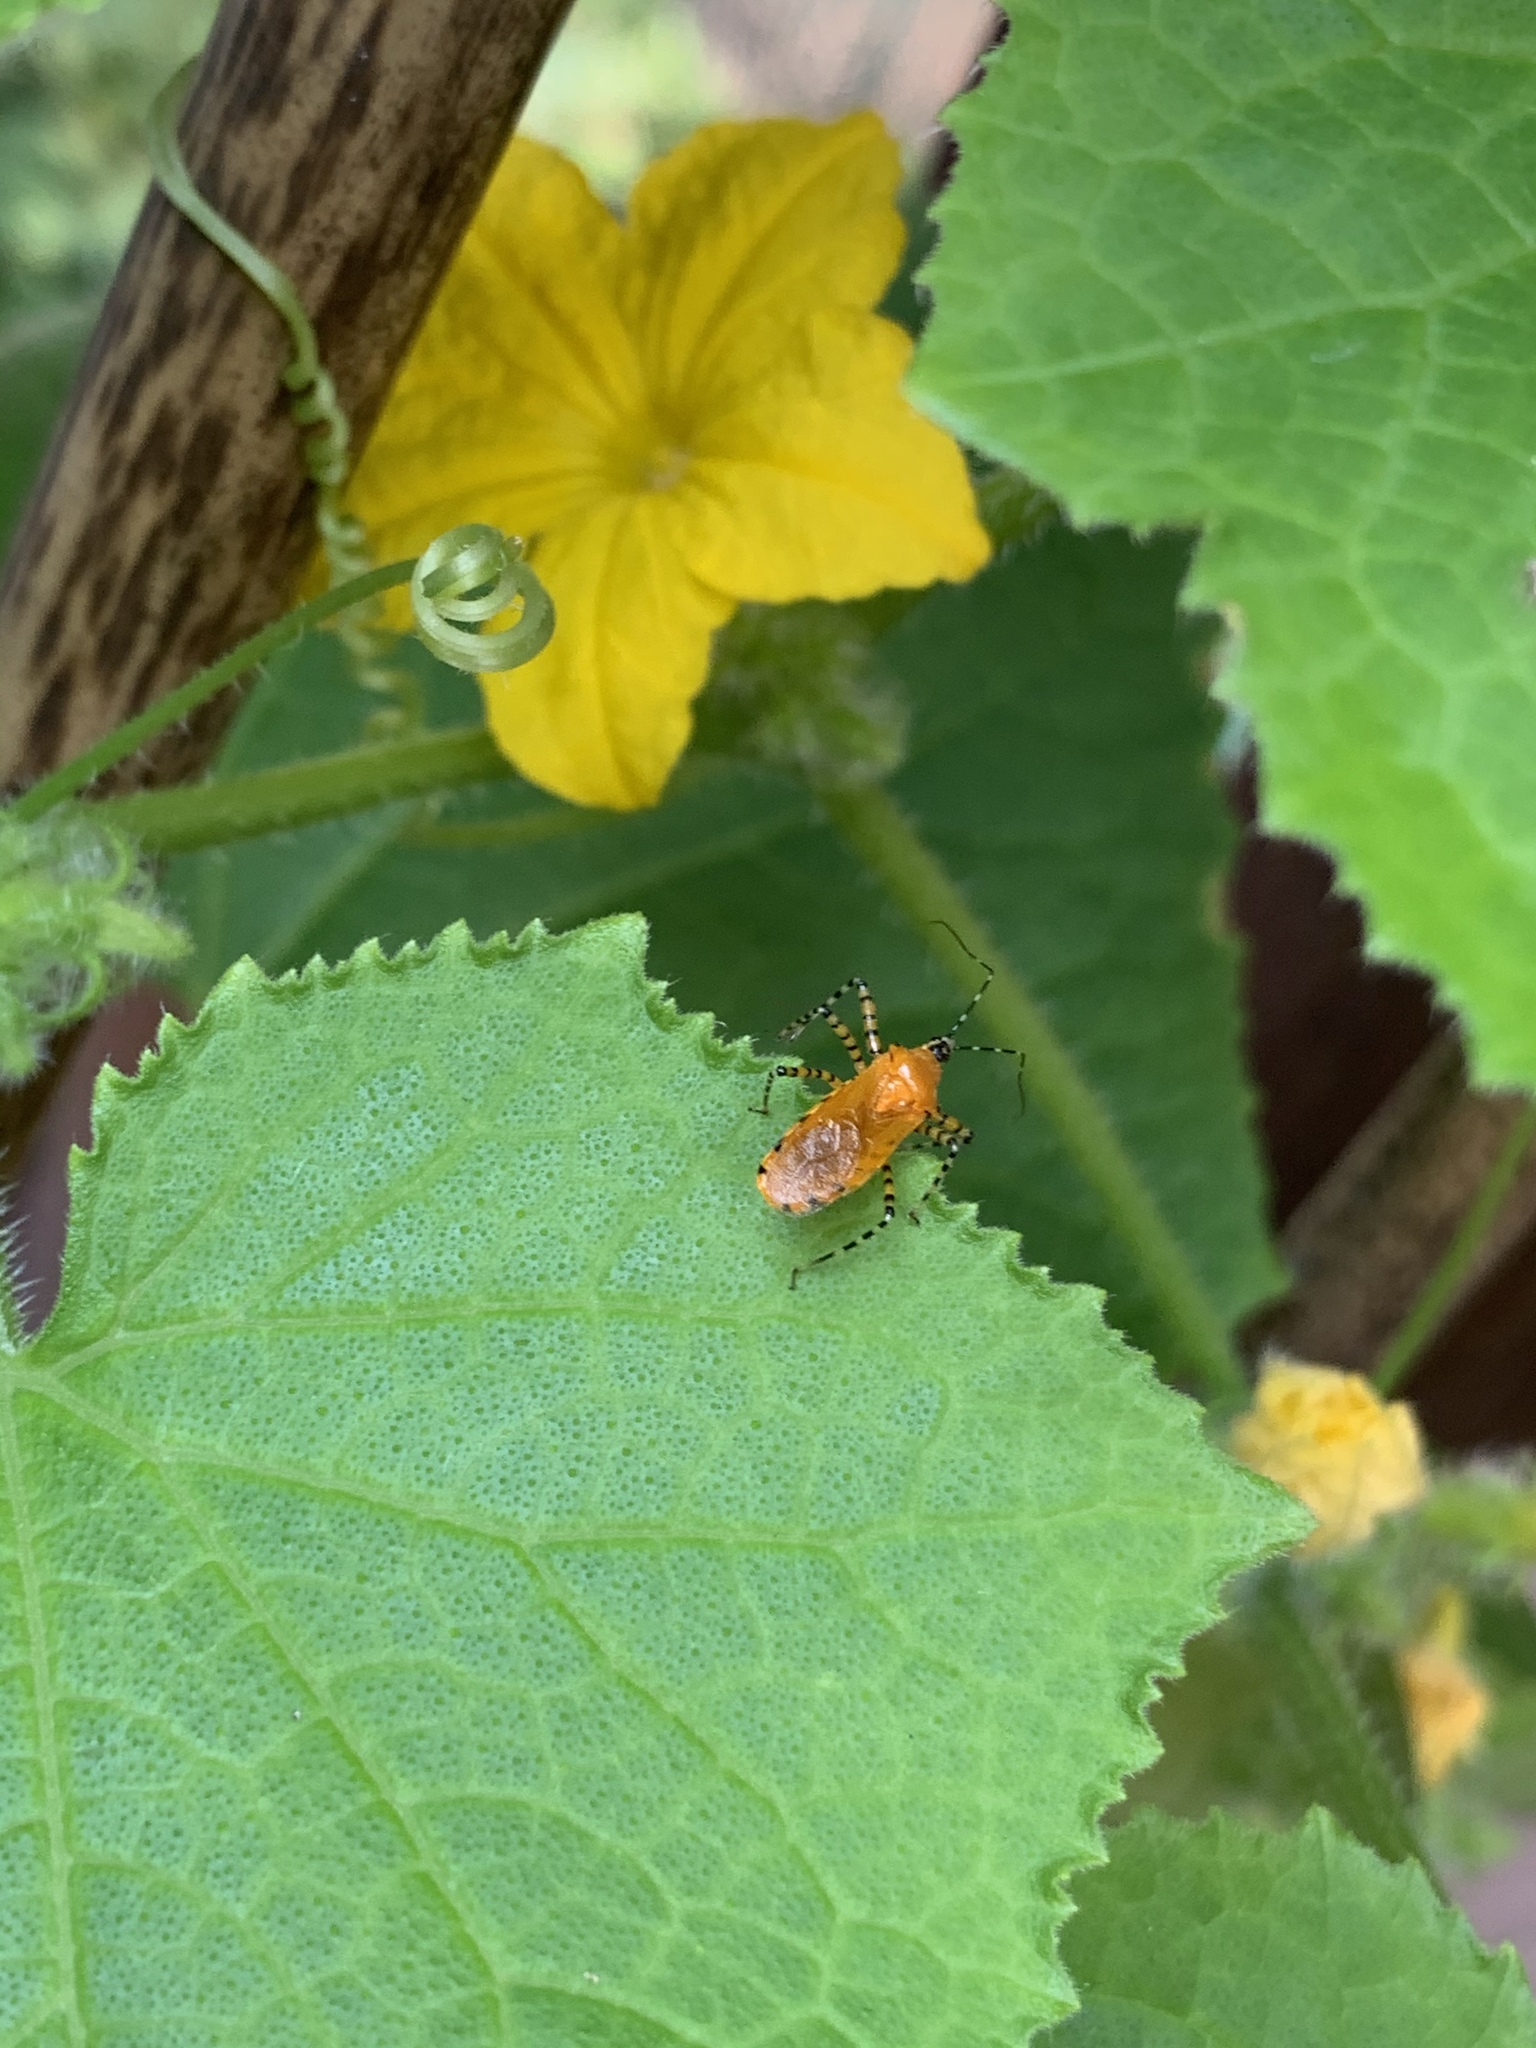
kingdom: Animalia
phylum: Arthropoda
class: Insecta
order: Hemiptera
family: Reduviidae
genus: Pselliopus
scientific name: Pselliopus barberi
